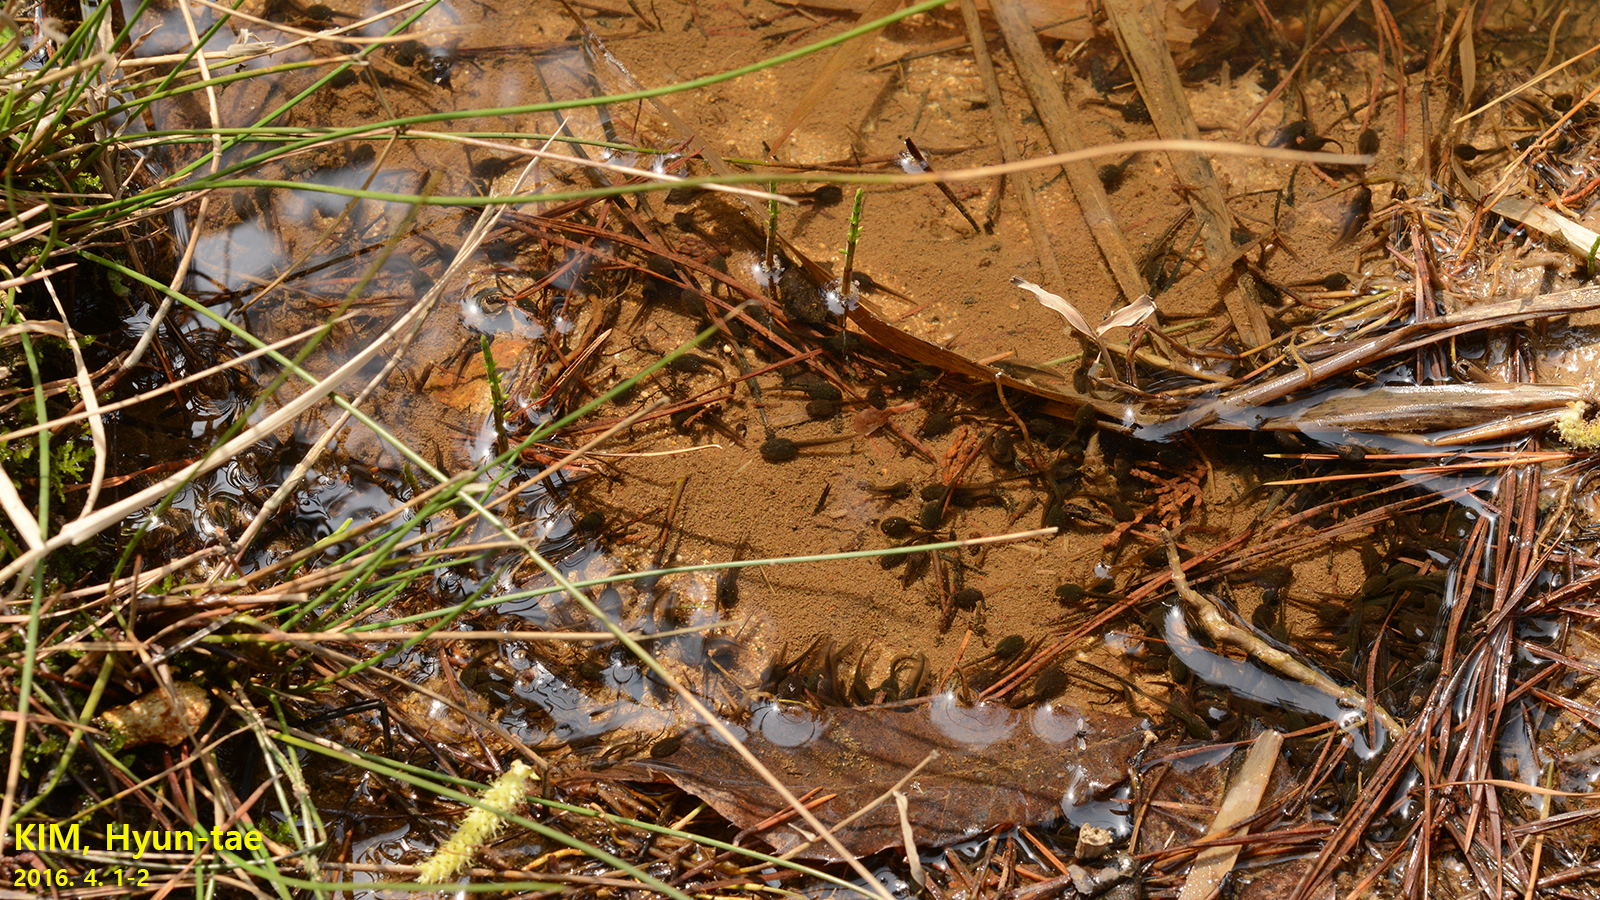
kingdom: Animalia
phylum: Chordata
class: Amphibia
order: Anura
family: Ranidae
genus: Rana
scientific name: Rana uenoi
